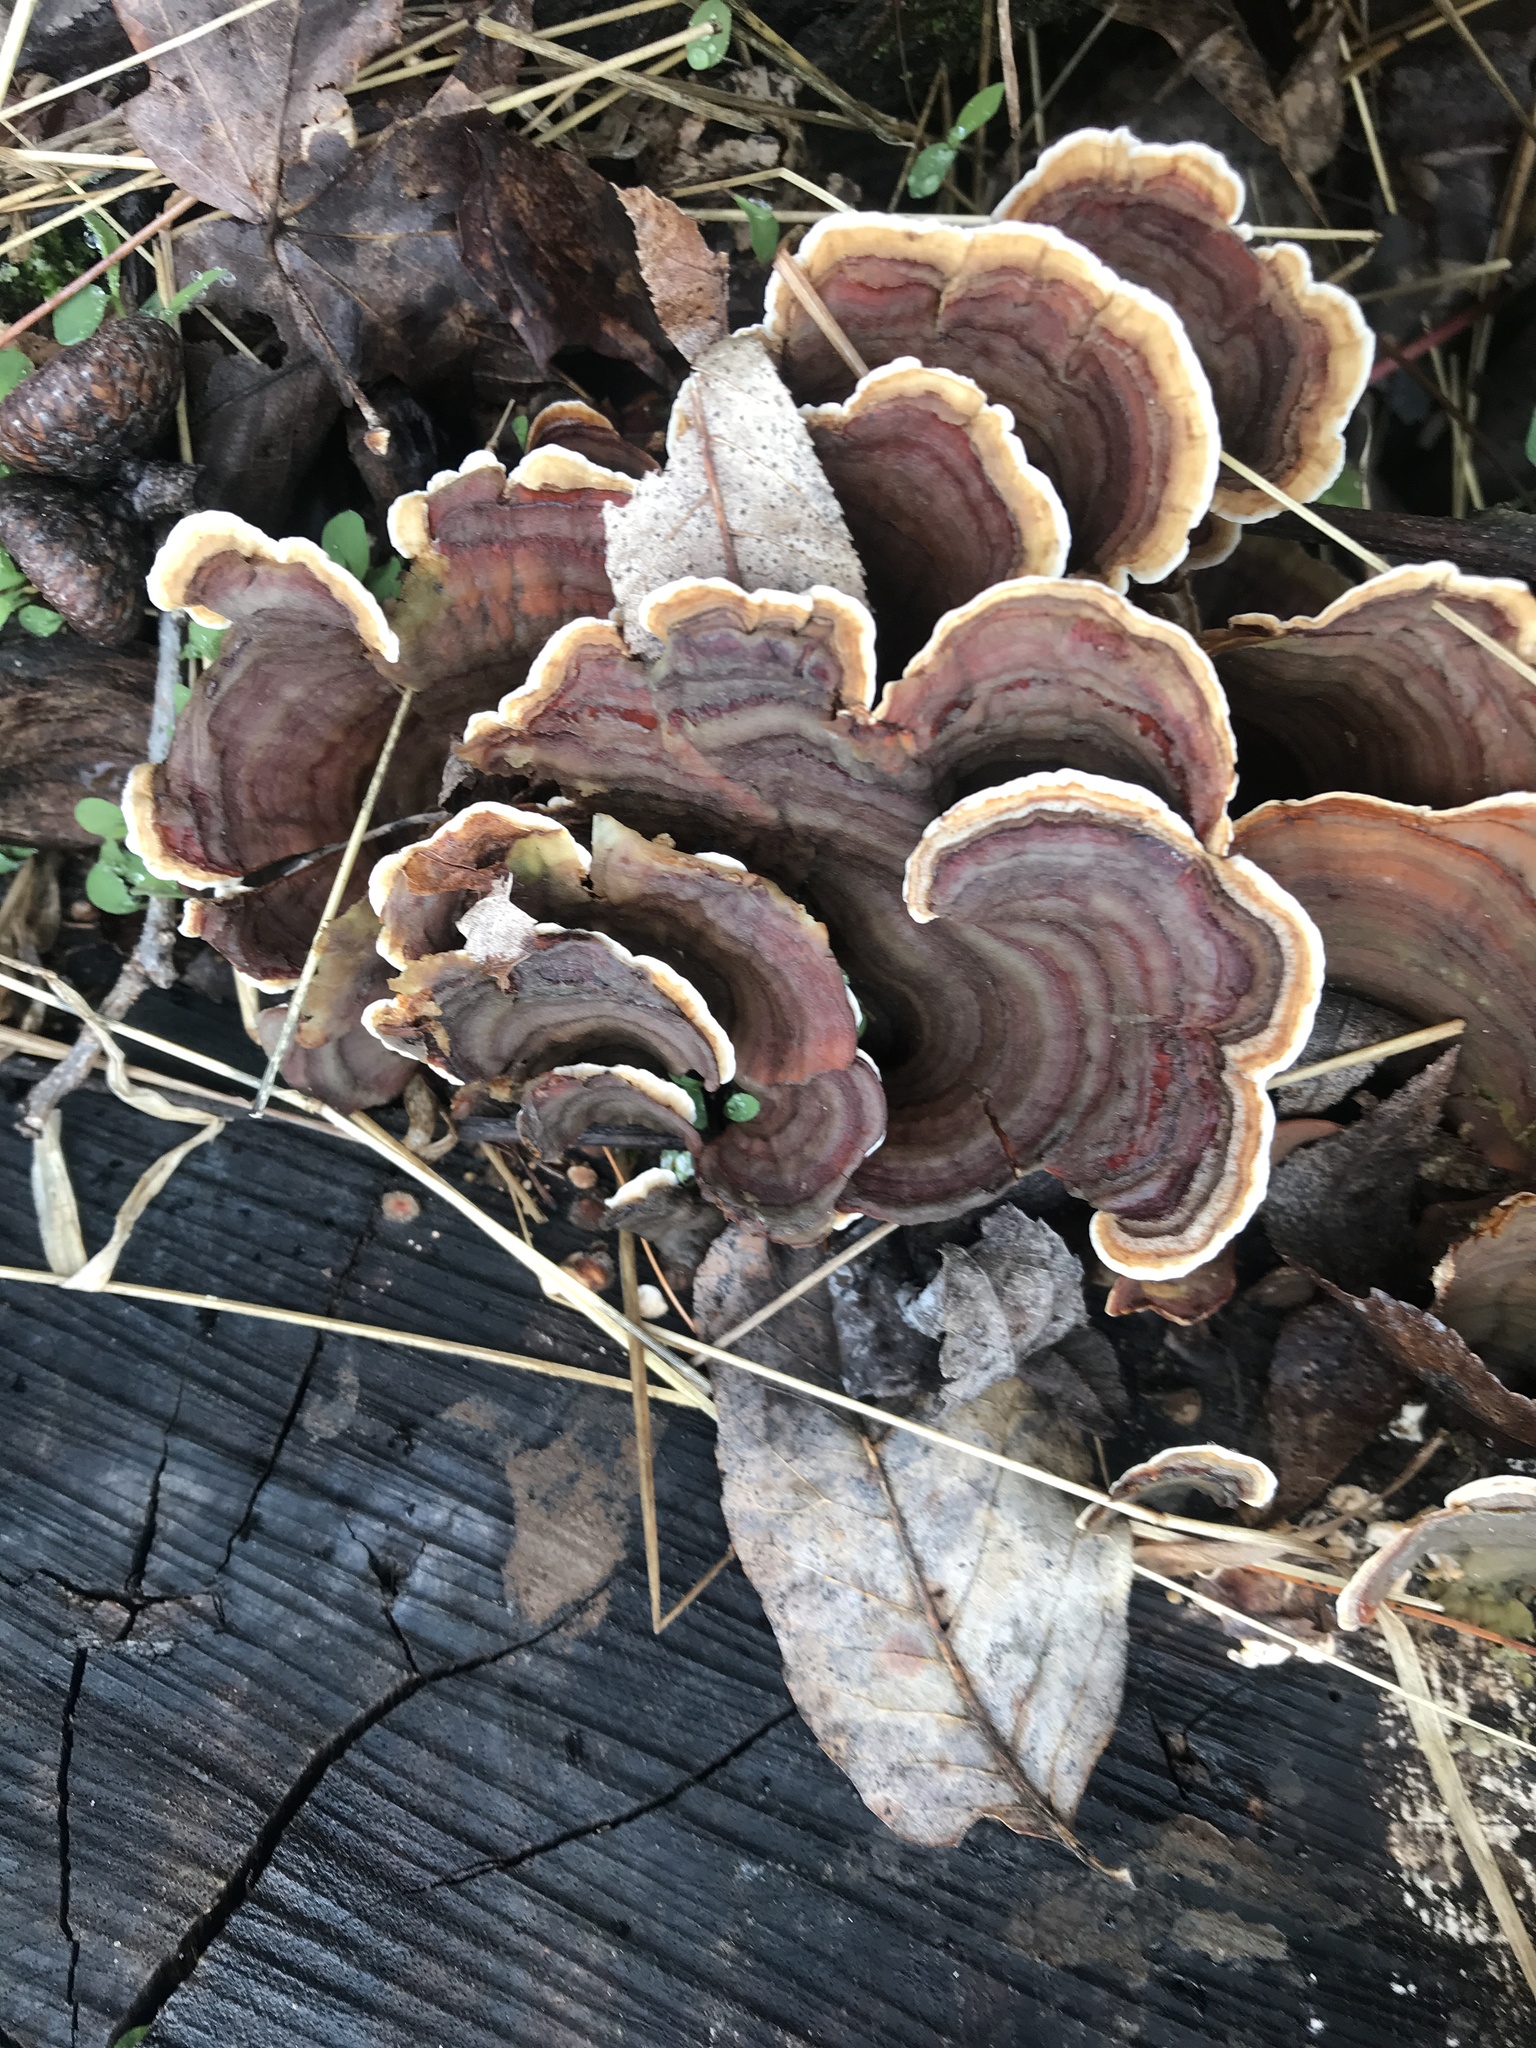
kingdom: Fungi
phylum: Basidiomycota
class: Agaricomycetes
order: Russulales
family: Stereaceae
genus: Stereum
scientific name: Stereum ostrea
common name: False turkeytail
